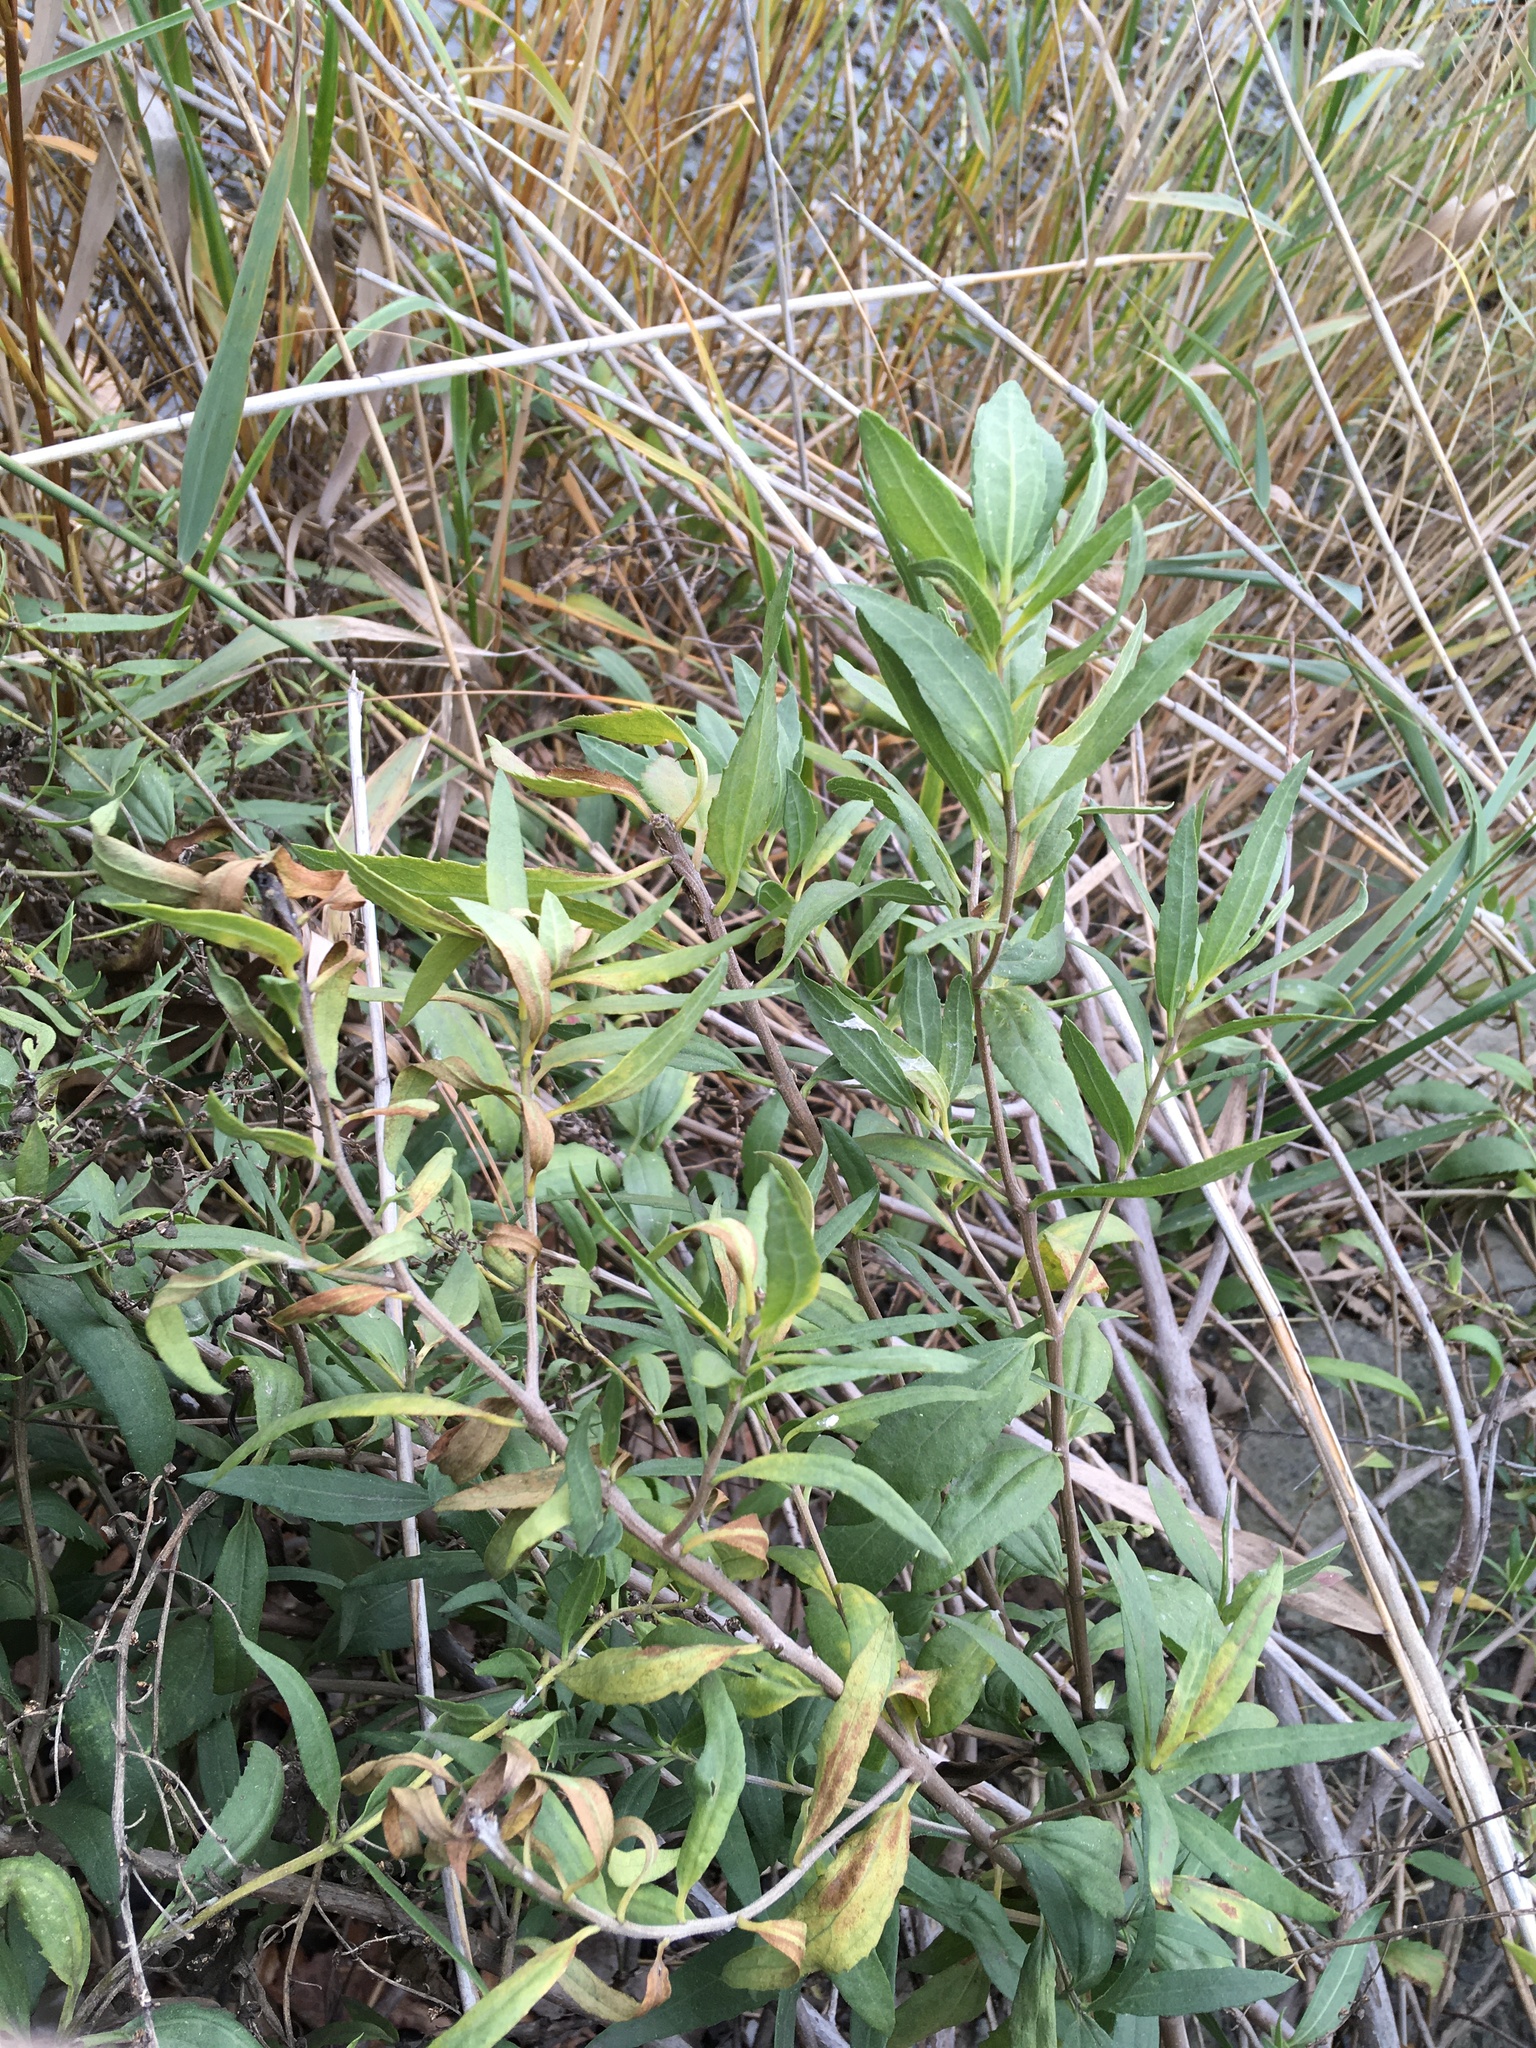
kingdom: Plantae
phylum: Tracheophyta
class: Magnoliopsida
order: Asterales
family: Asteraceae
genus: Iva
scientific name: Iva frutescens
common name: Big-leaved marsh-elder
